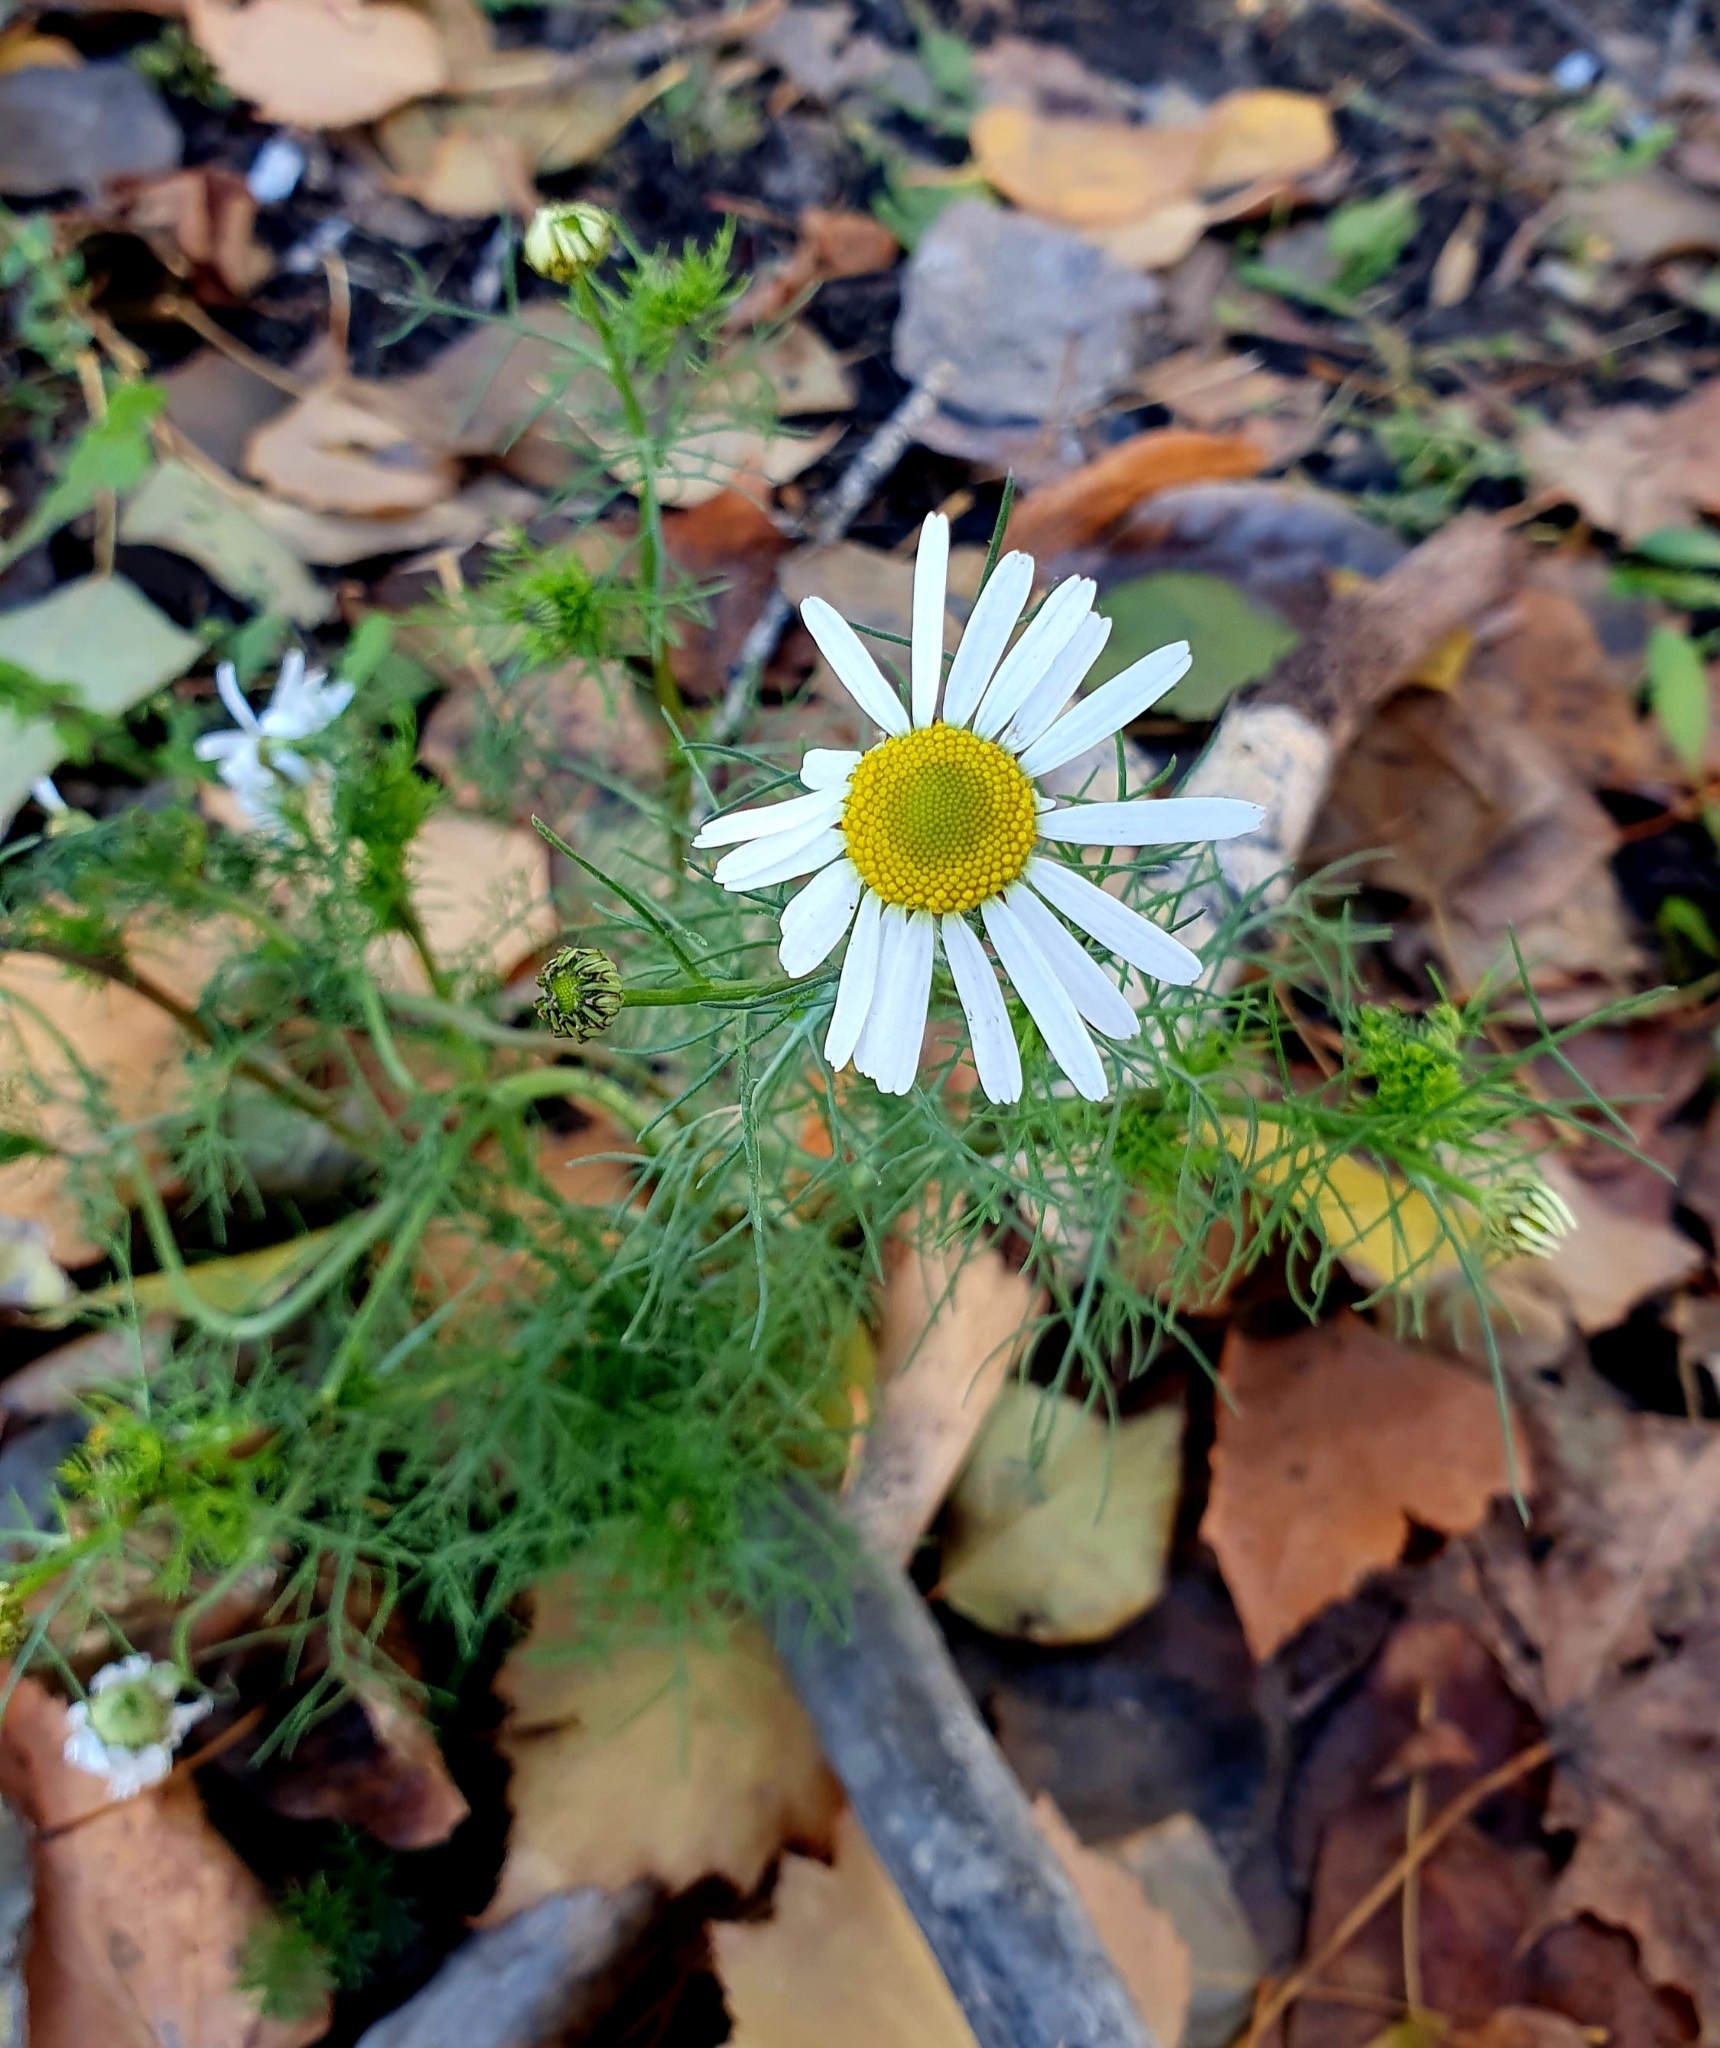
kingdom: Plantae
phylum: Tracheophyta
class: Magnoliopsida
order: Asterales
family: Asteraceae
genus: Tripleurospermum
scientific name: Tripleurospermum inodorum
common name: Scentless mayweed
